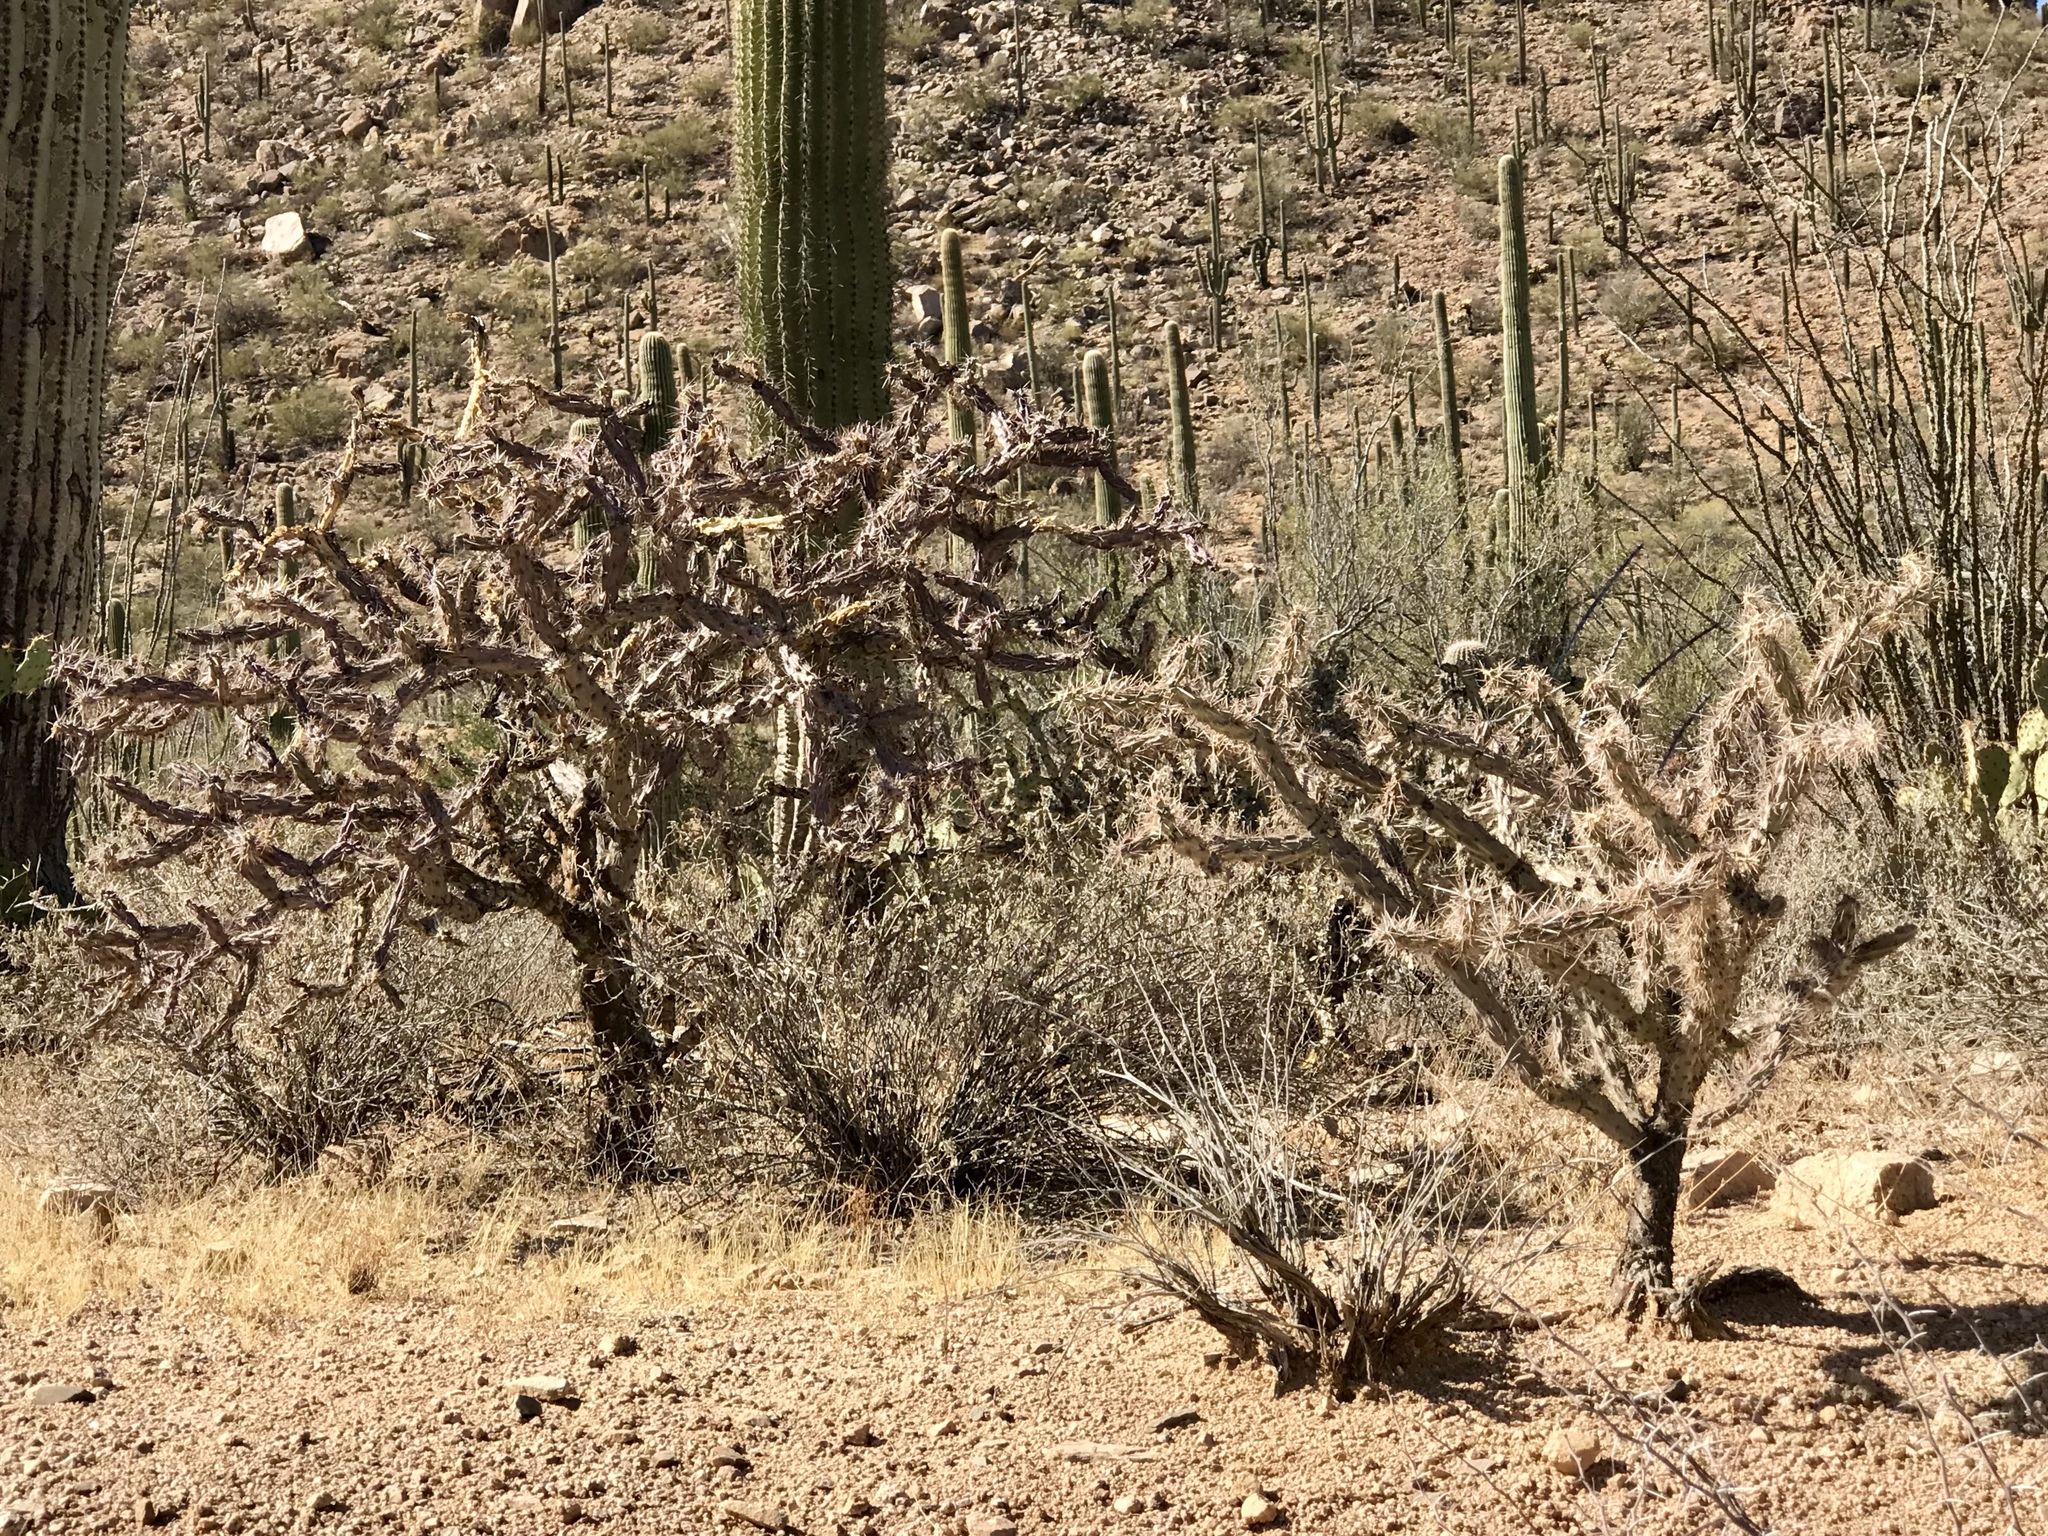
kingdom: Plantae
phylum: Tracheophyta
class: Magnoliopsida
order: Caryophyllales
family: Cactaceae
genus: Cylindropuntia
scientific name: Cylindropuntia acanthocarpa
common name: Buckhorn cholla
